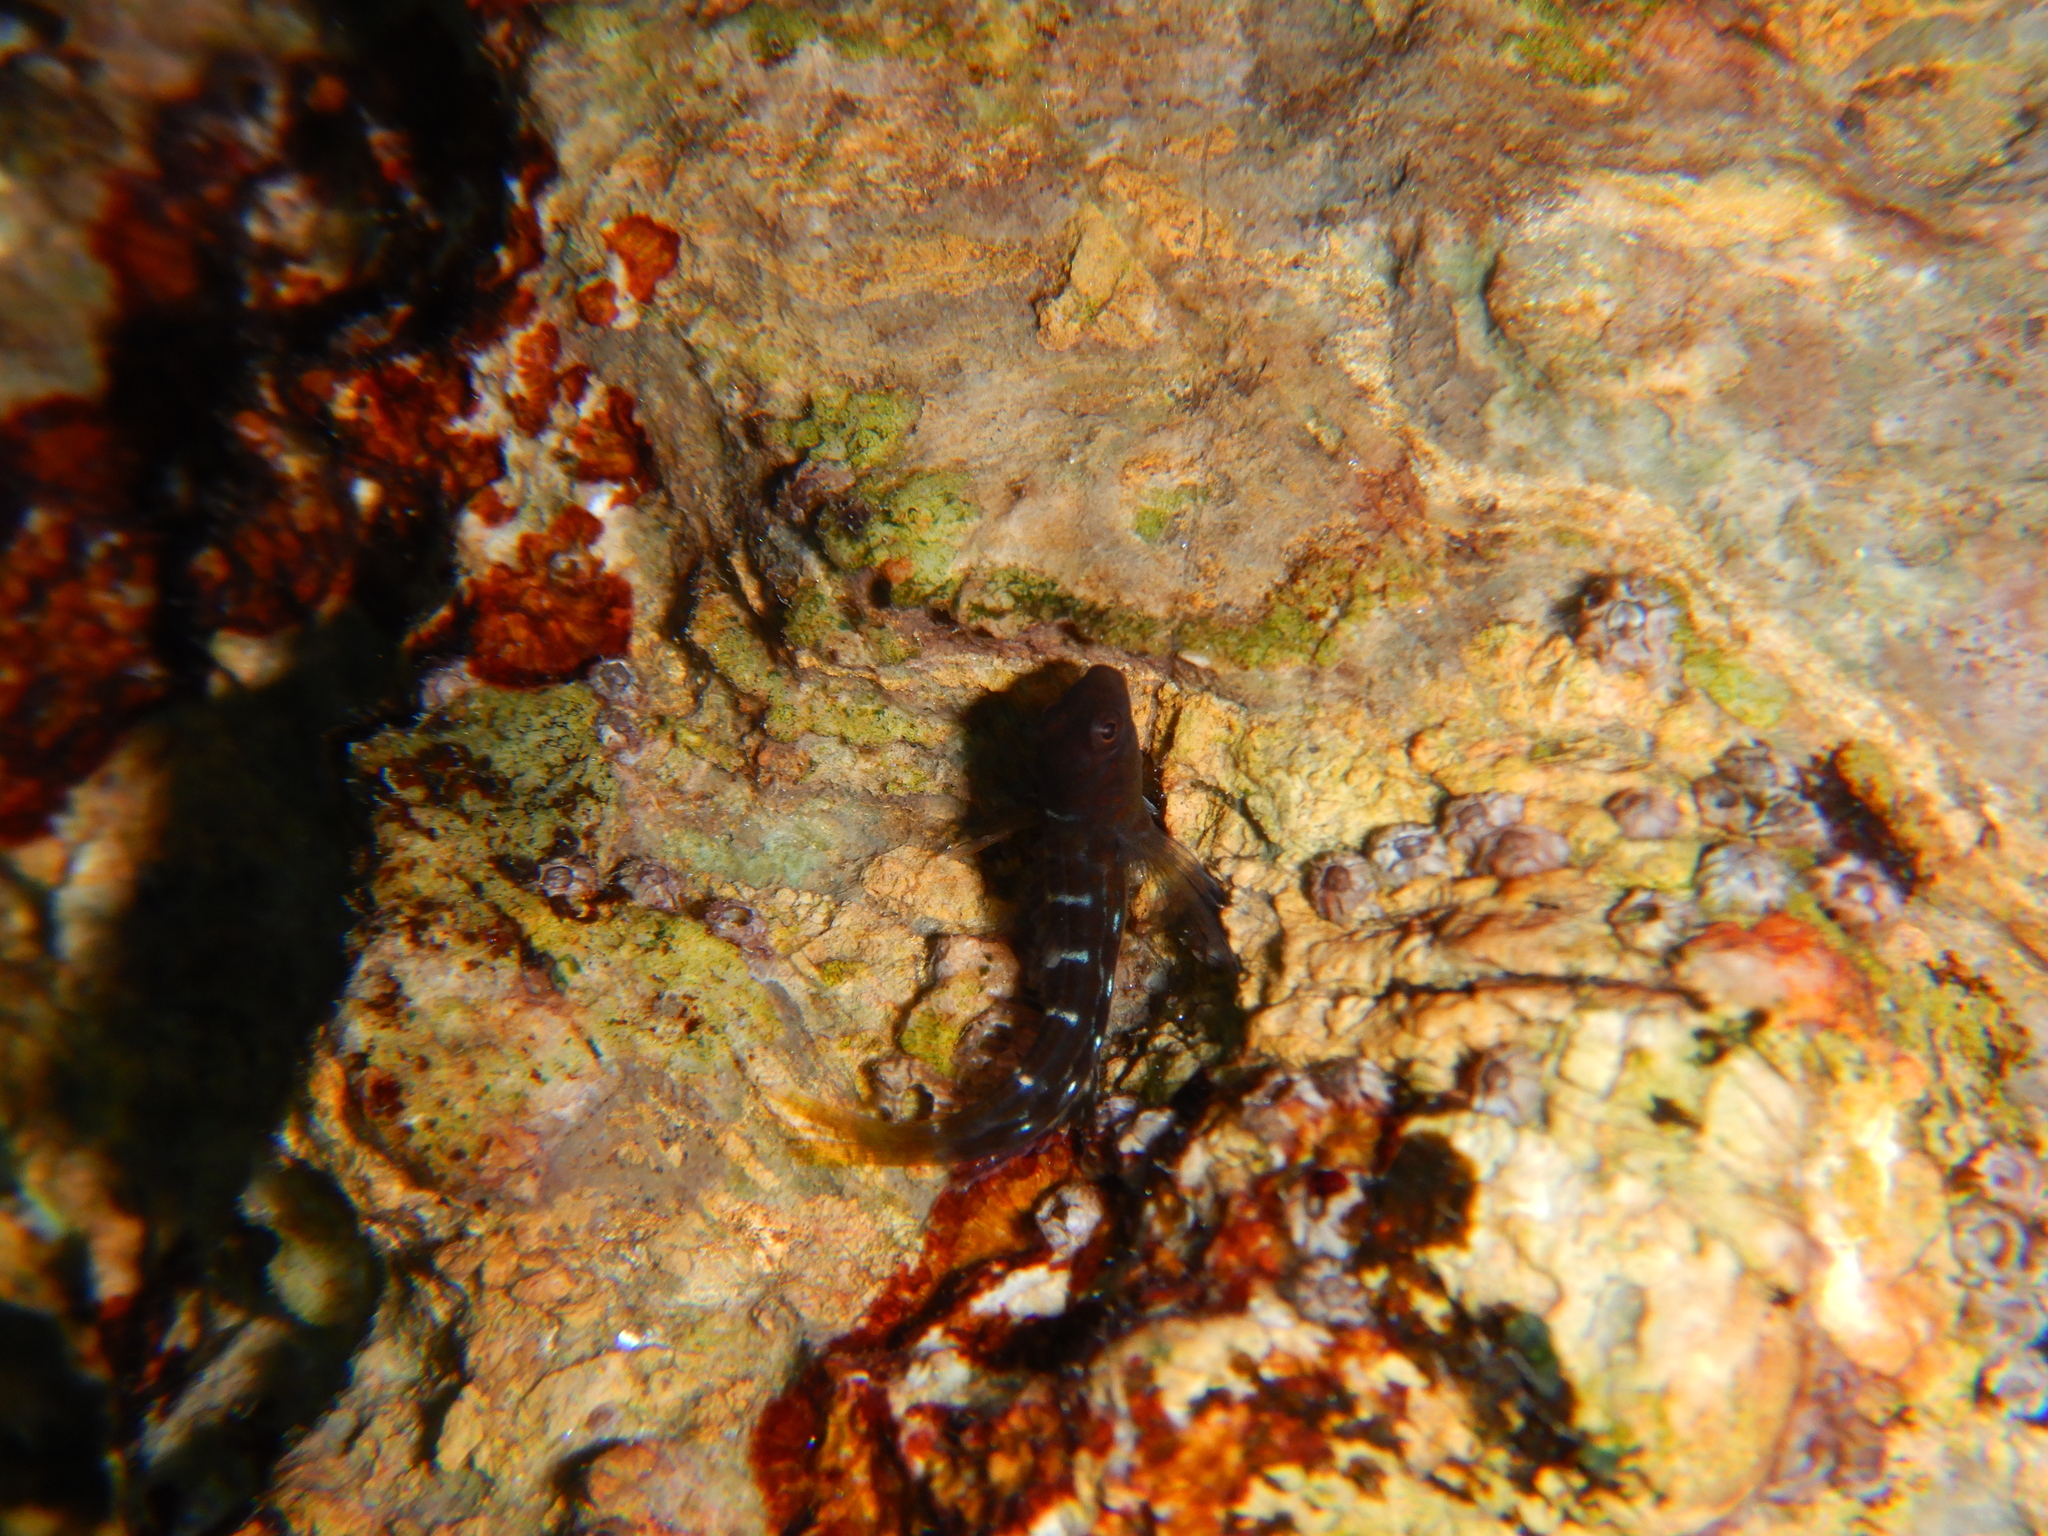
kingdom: Animalia
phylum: Chordata
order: Perciformes
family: Blenniidae
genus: Microlipophrys
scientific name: Microlipophrys canevae
